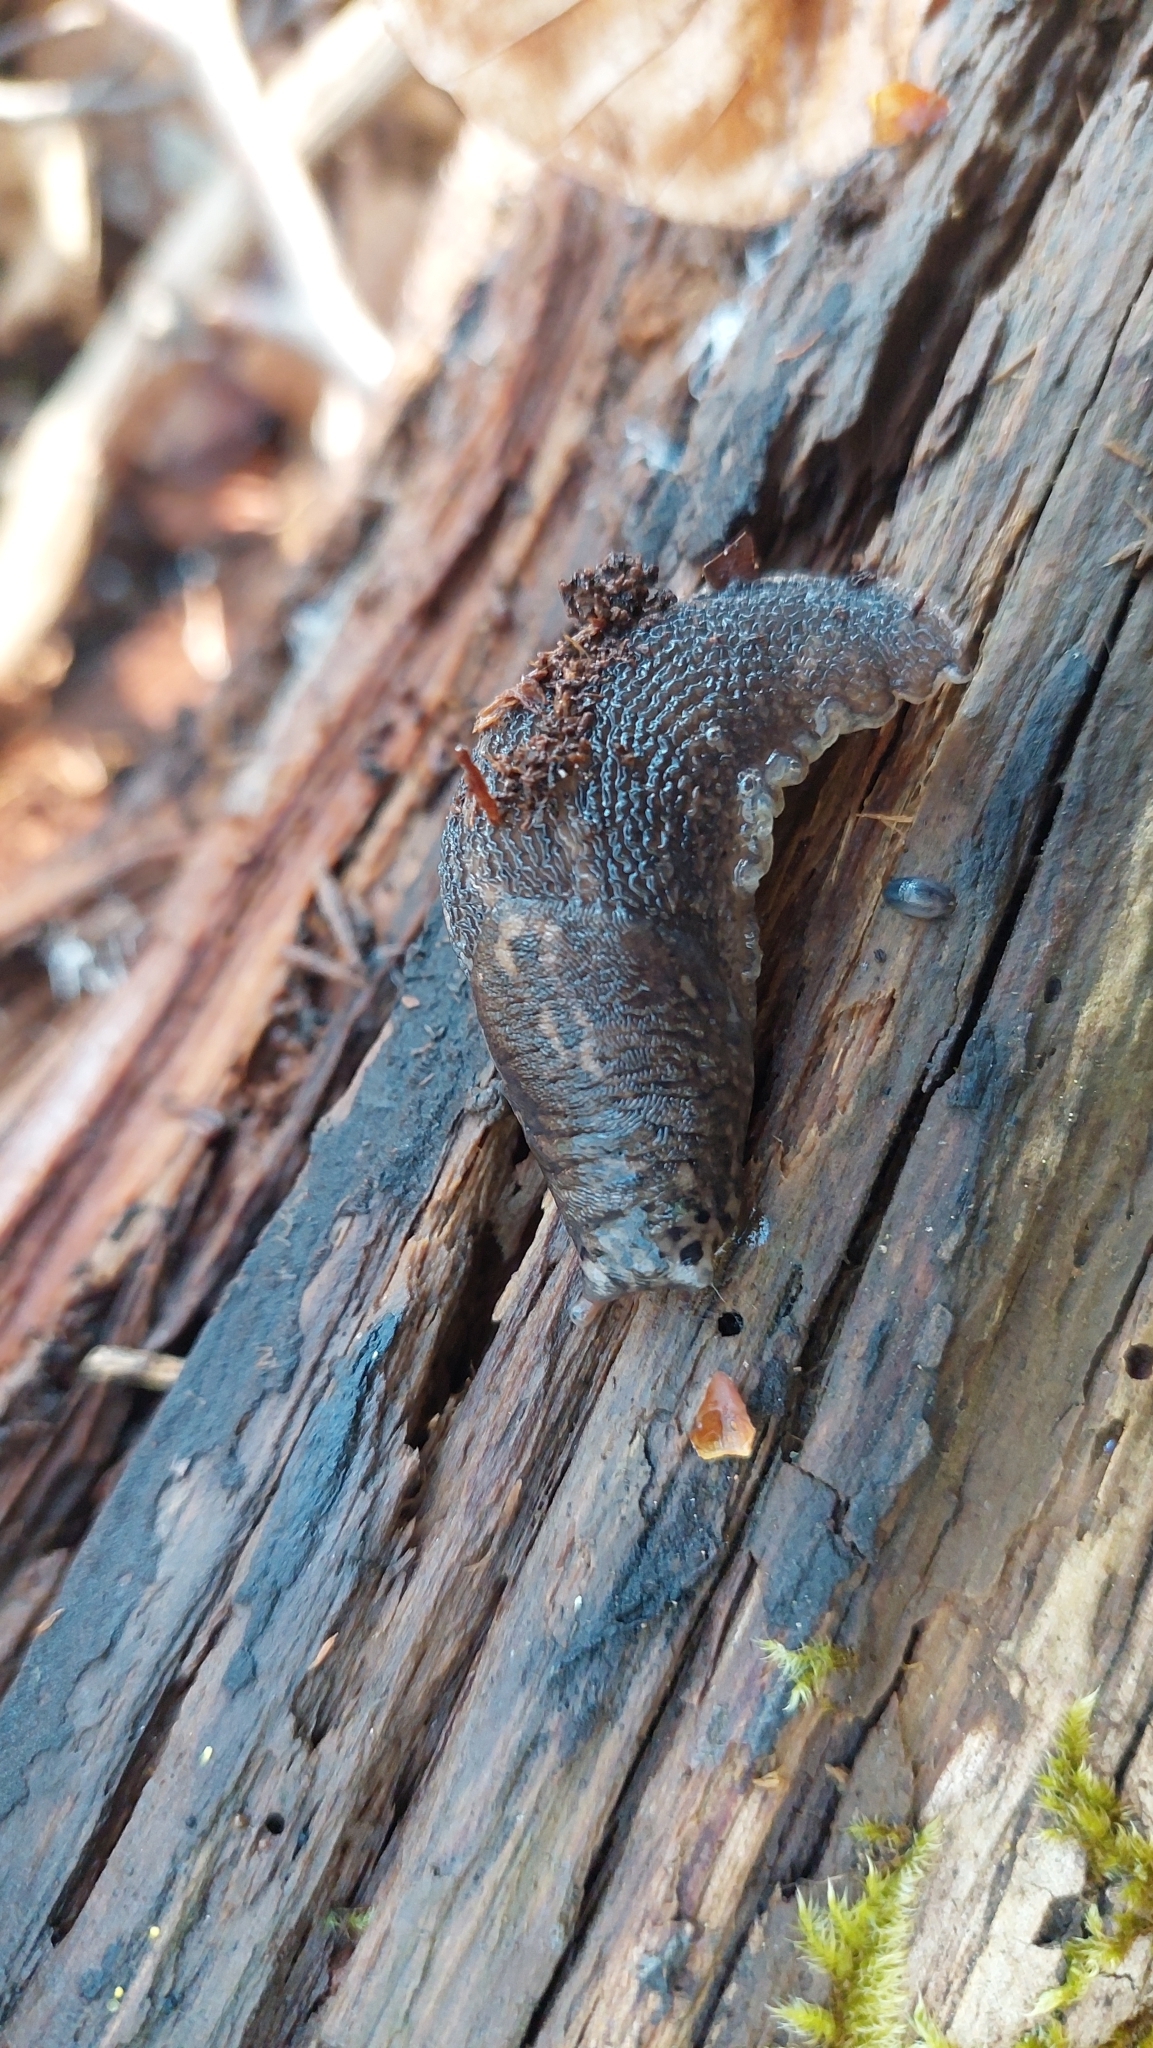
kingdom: Animalia
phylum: Mollusca
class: Gastropoda
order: Stylommatophora
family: Limacidae
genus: Limax
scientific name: Limax maximus
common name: Great grey slug
